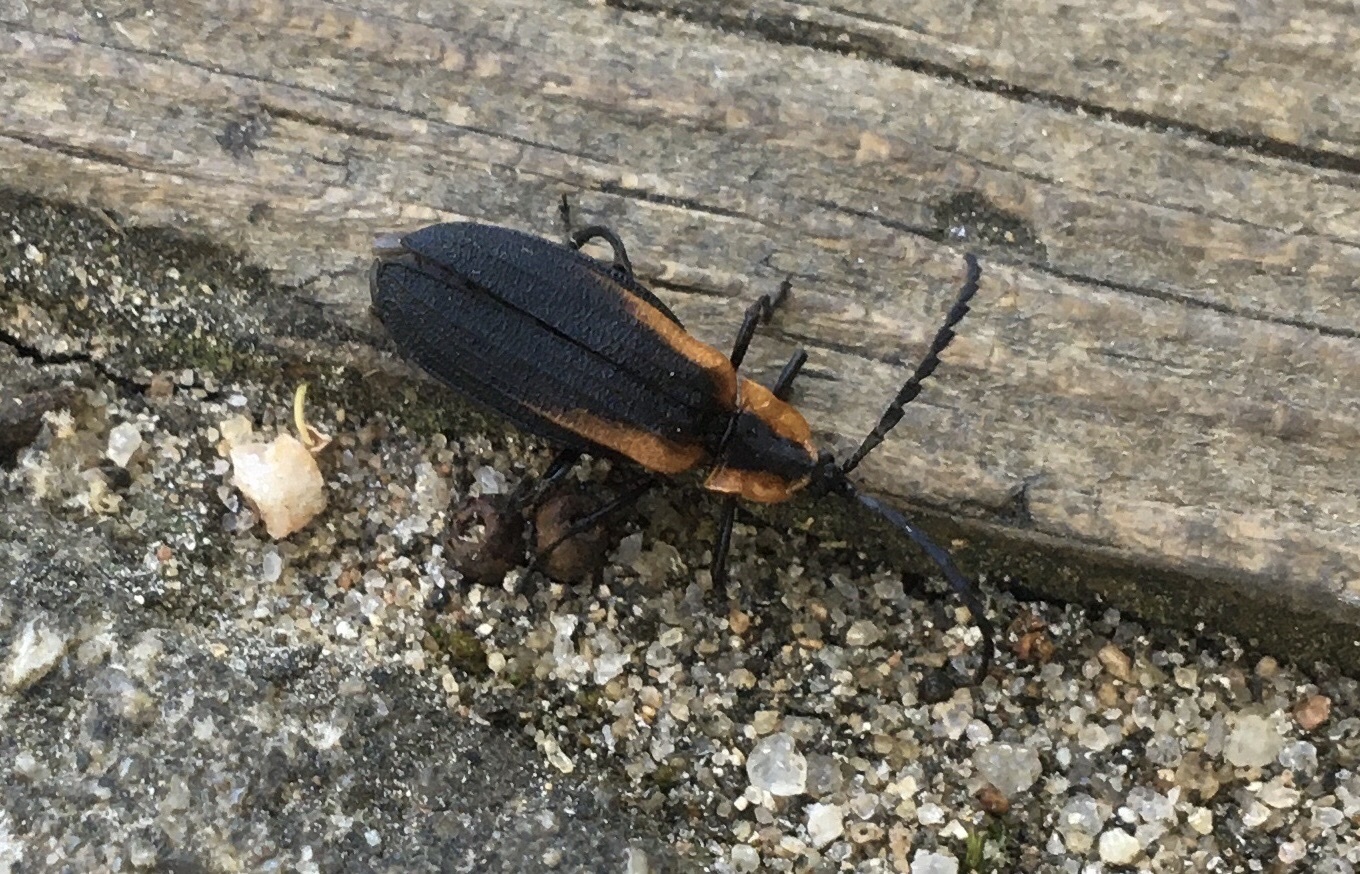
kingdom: Animalia
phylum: Arthropoda
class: Insecta
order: Coleoptera
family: Lycidae
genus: Lyconotus
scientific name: Lyconotus lateralis
